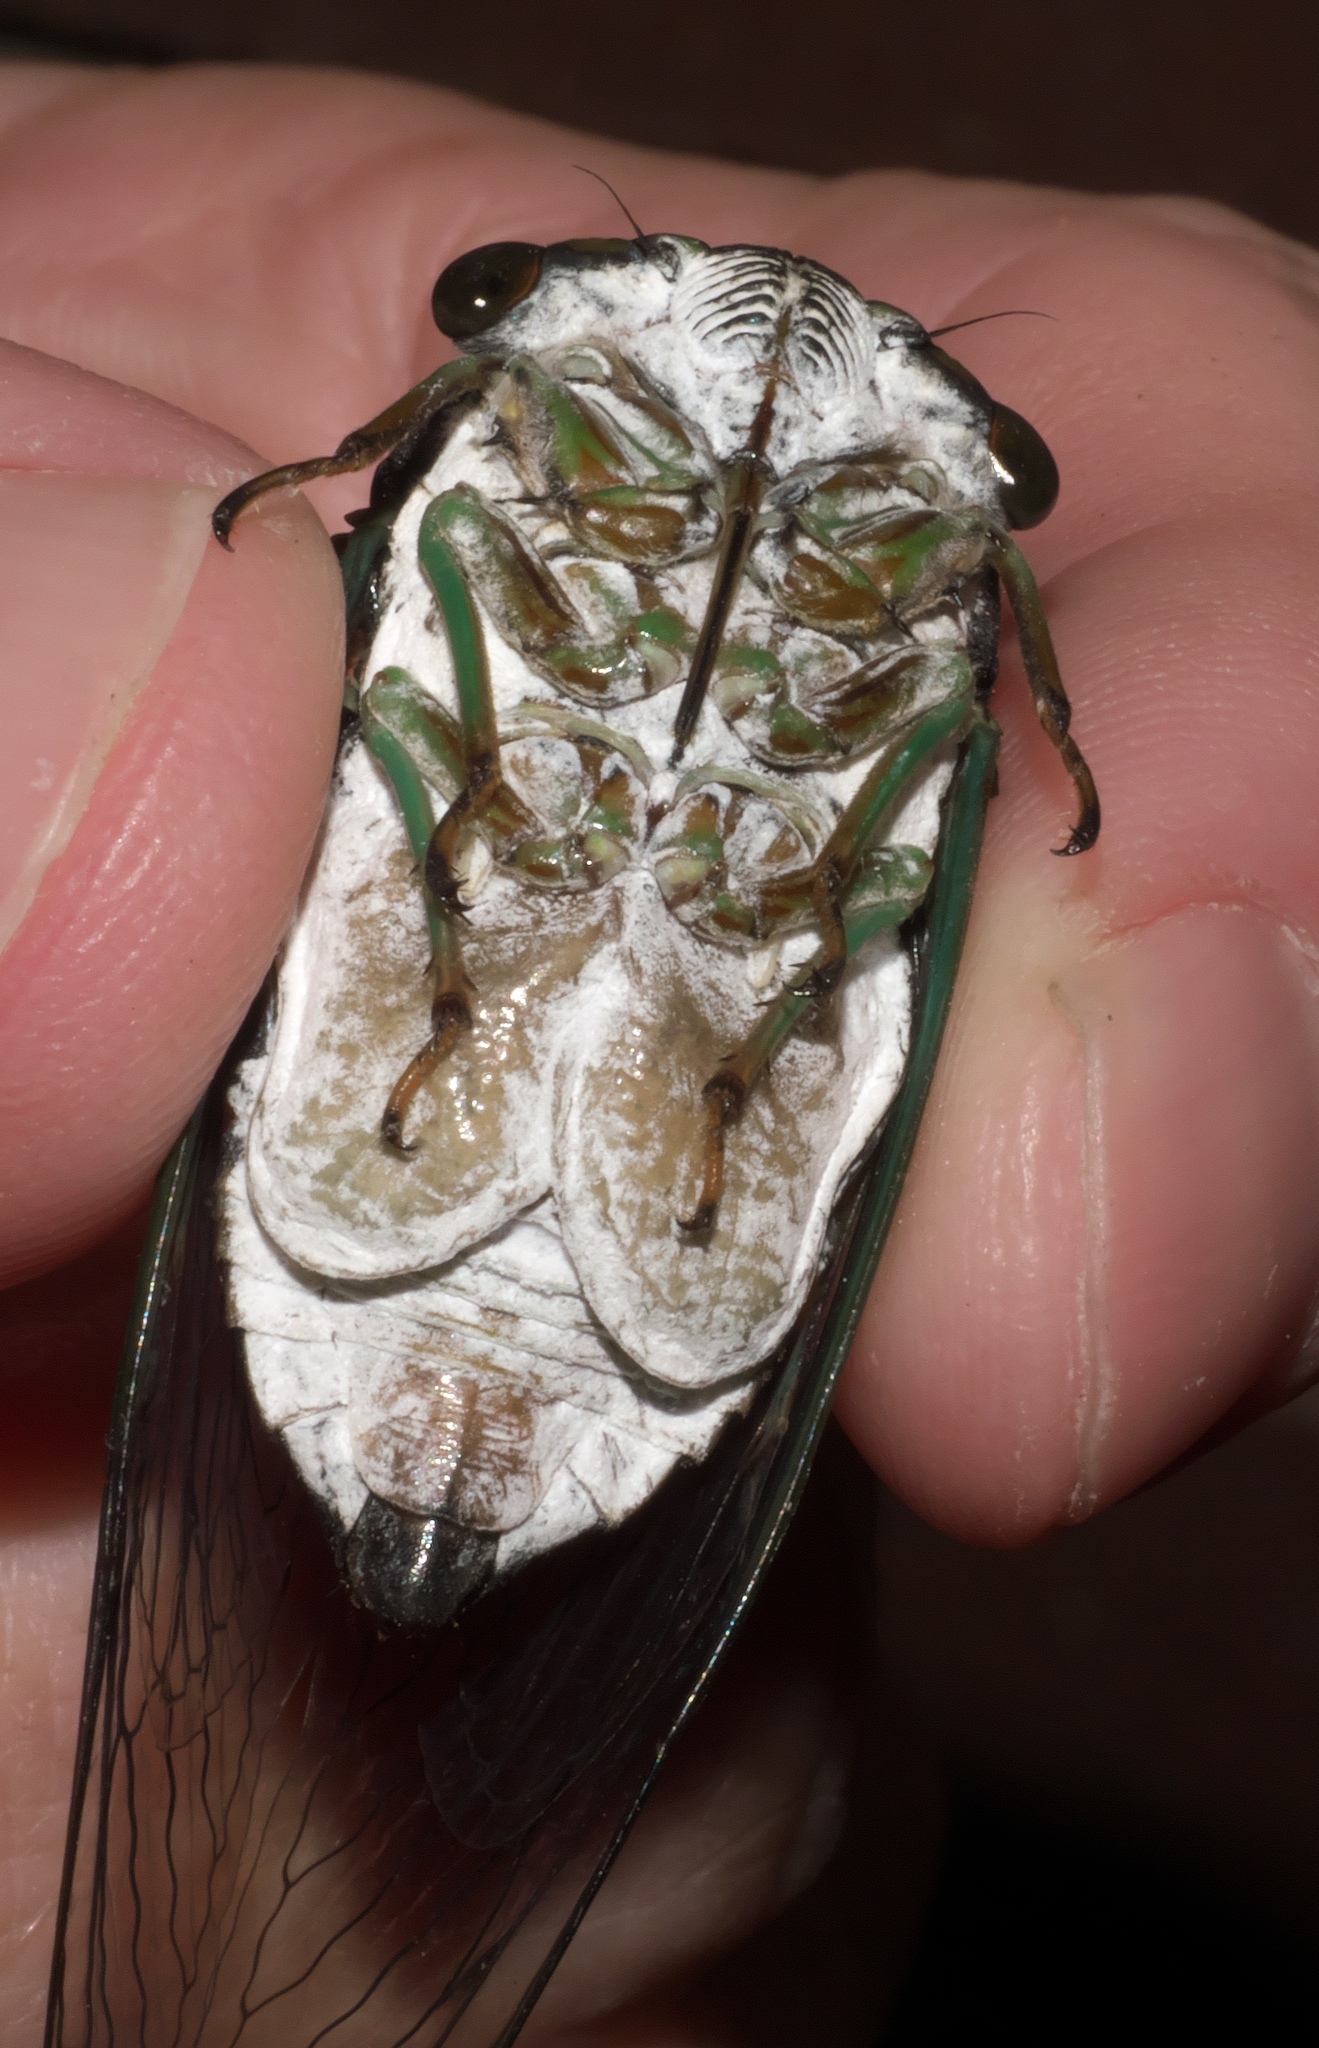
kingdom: Animalia
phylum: Arthropoda
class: Insecta
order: Hemiptera
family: Cicadidae
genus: Neotibicen
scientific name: Neotibicen tibicen
